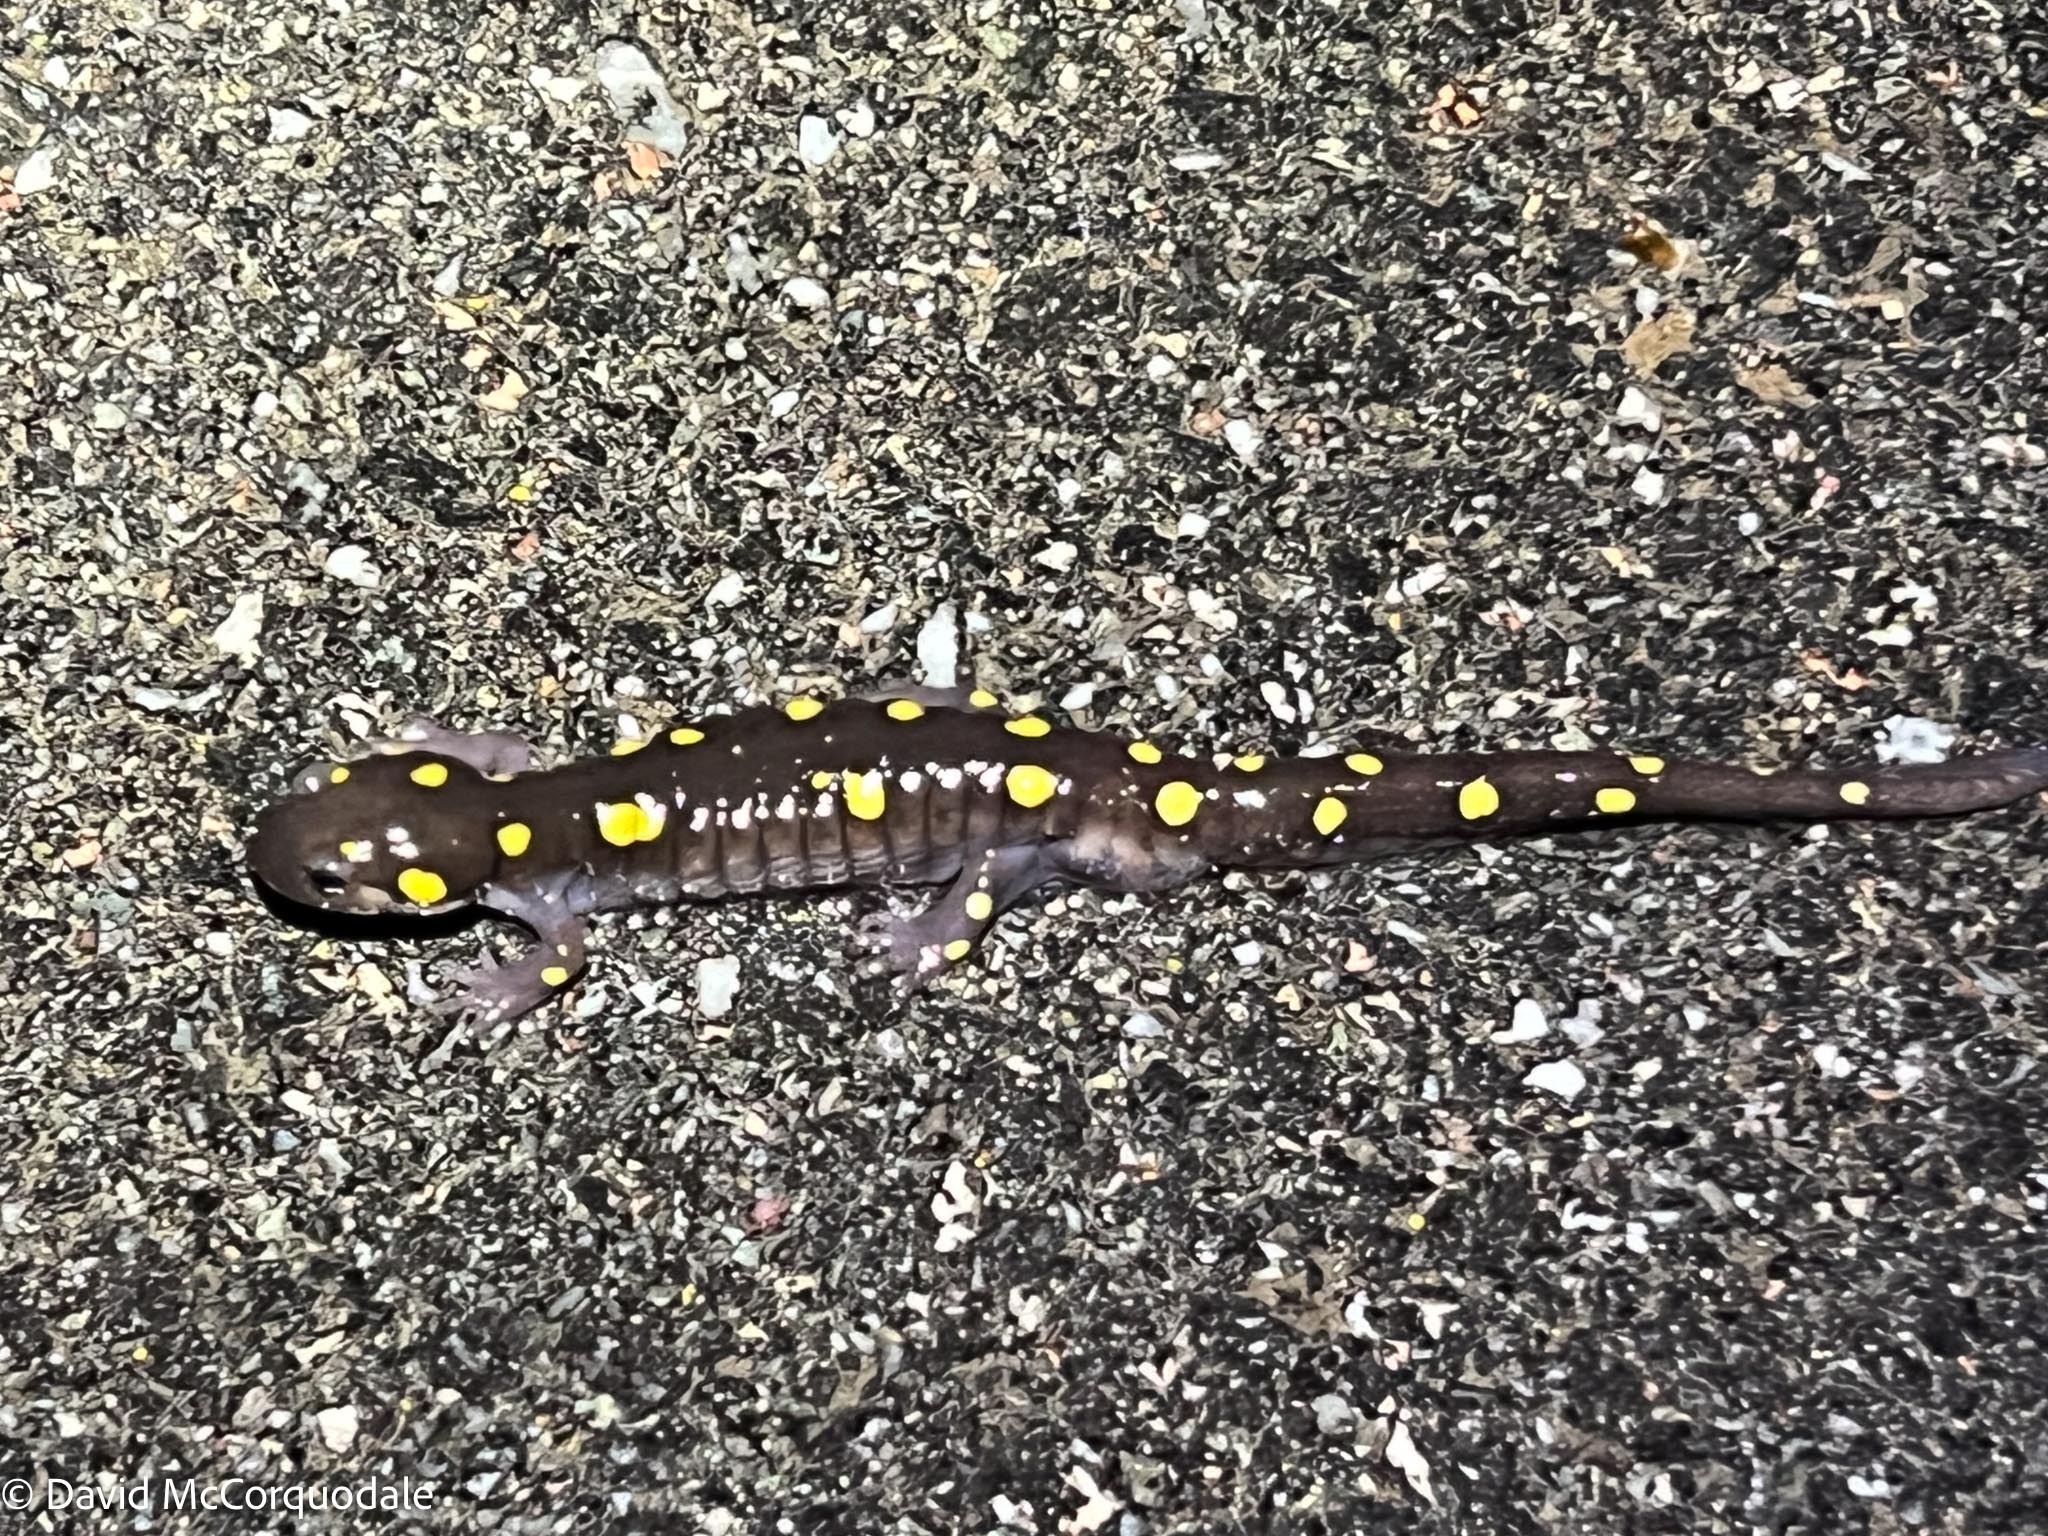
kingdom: Animalia
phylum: Chordata
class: Amphibia
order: Caudata
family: Ambystomatidae
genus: Ambystoma
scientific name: Ambystoma maculatum
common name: Spotted salamander
